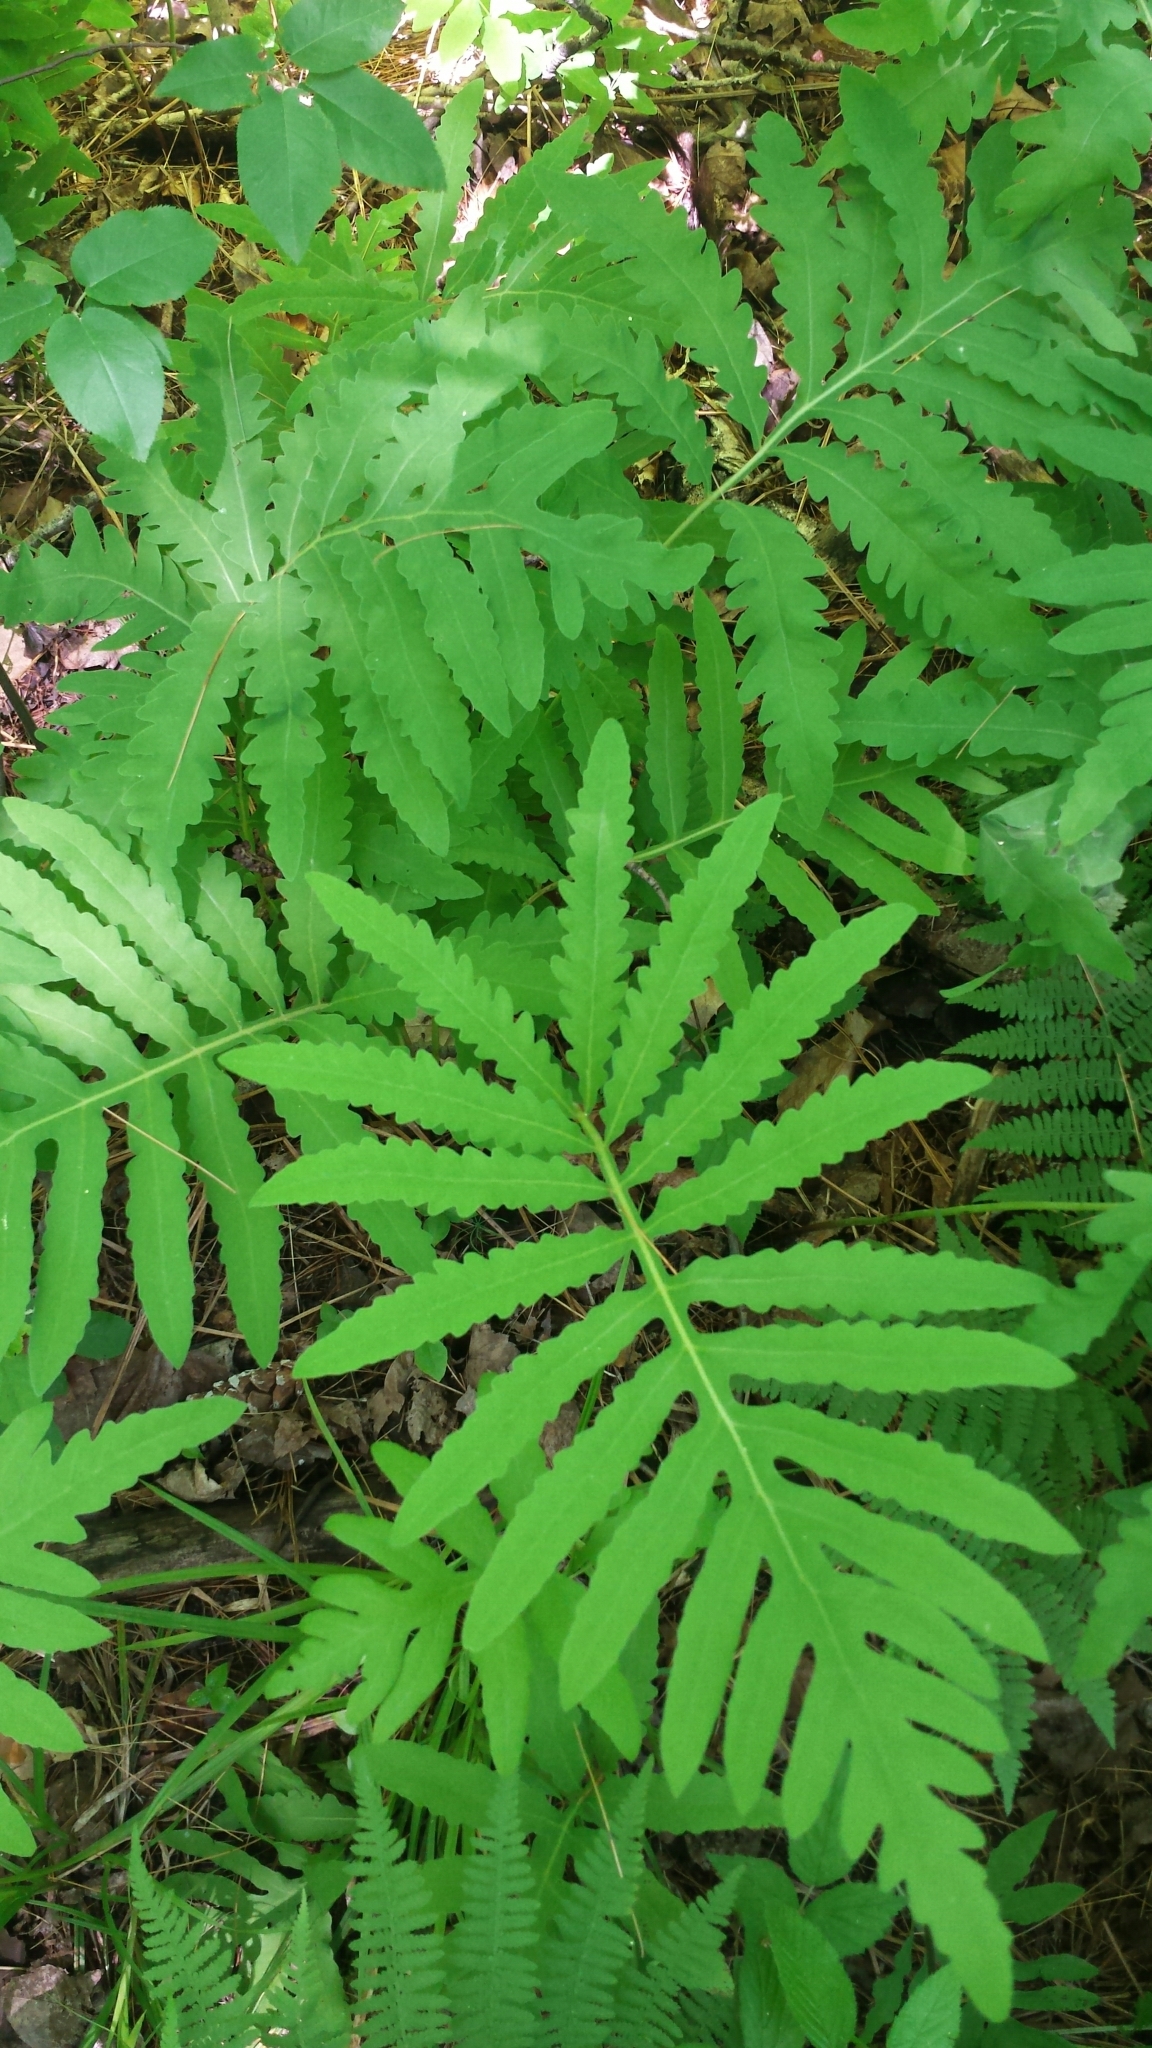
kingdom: Plantae
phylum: Tracheophyta
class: Polypodiopsida
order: Polypodiales
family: Onocleaceae
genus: Onoclea
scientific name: Onoclea sensibilis
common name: Sensitive fern
